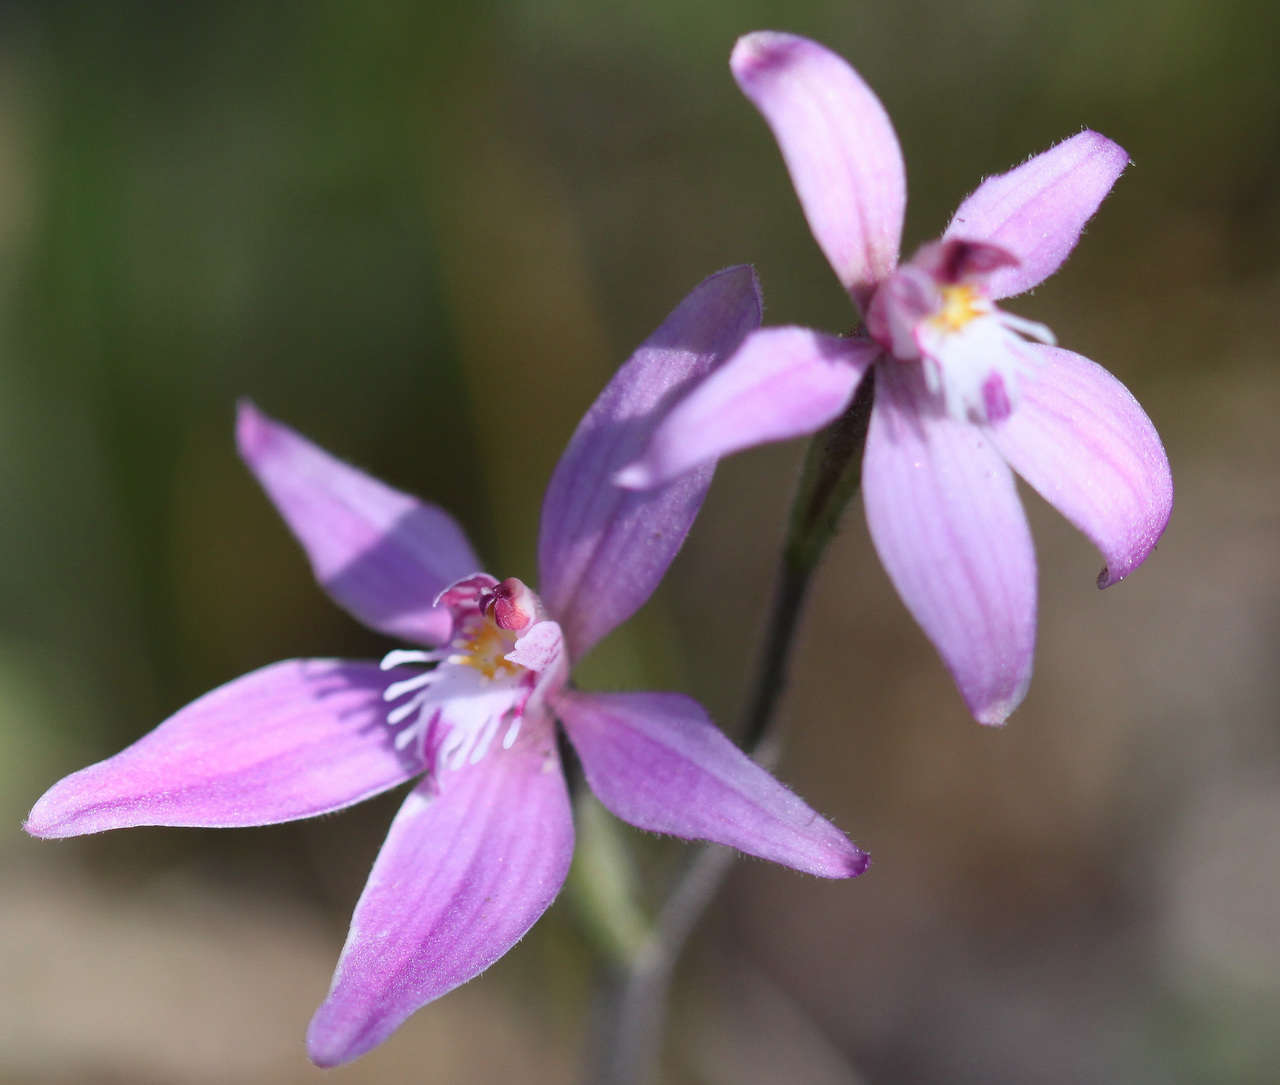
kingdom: Plantae
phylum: Tracheophyta
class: Liliopsida
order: Asparagales
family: Orchidaceae
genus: Caladenia
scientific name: Caladenia latifolia
